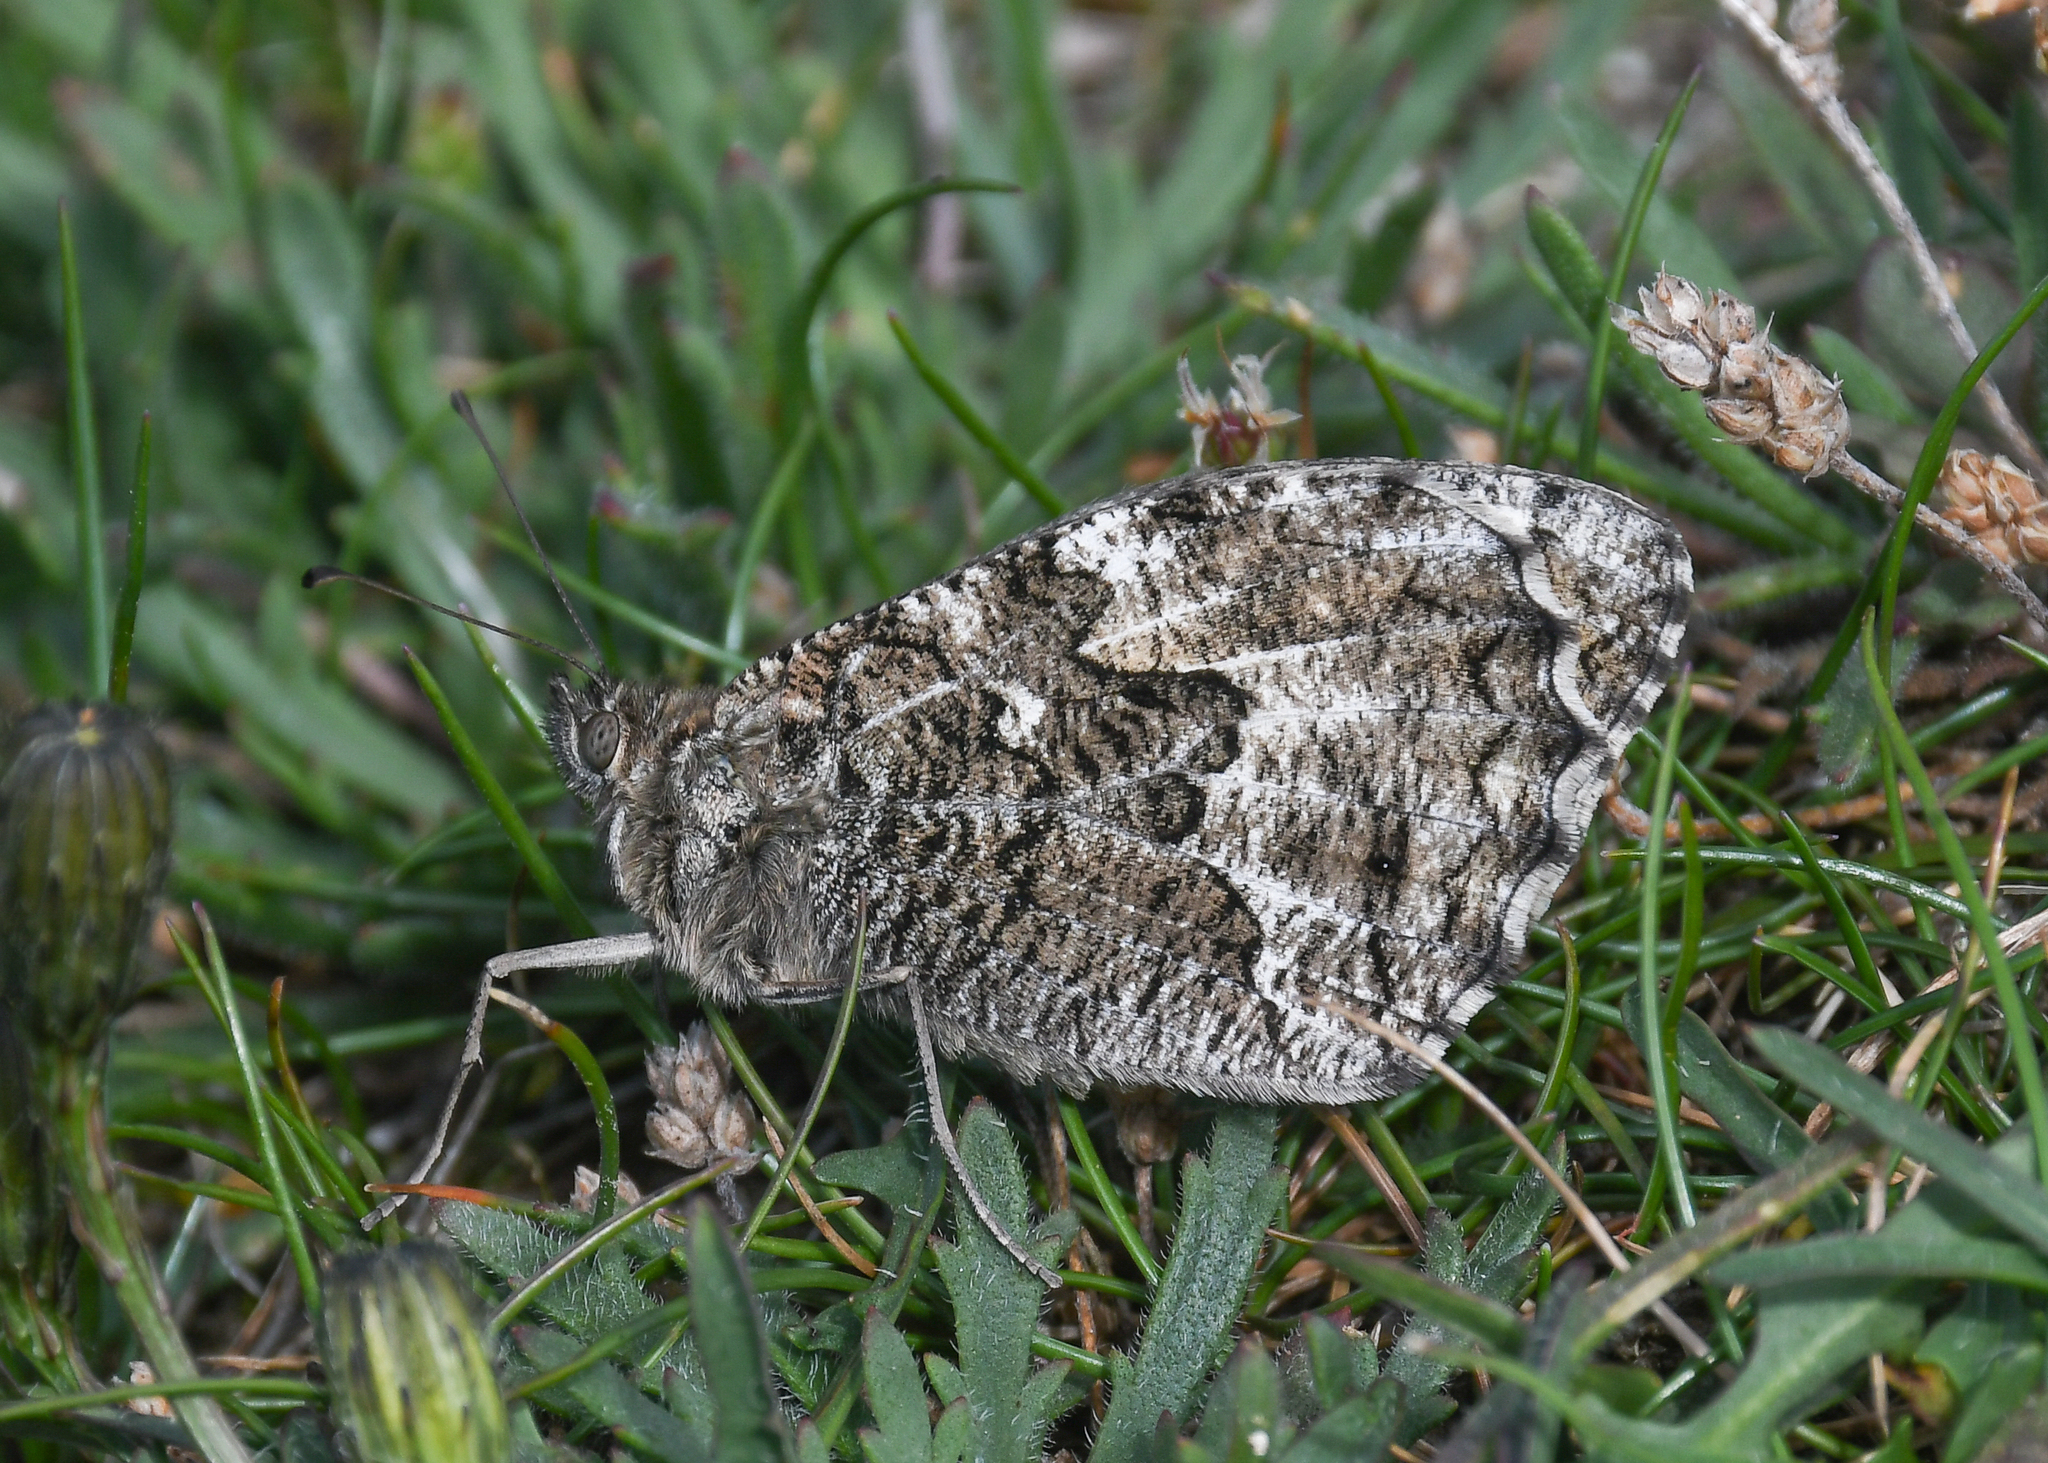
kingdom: Animalia
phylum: Arthropoda
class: Insecta
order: Lepidoptera
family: Nymphalidae
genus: Hipparchia
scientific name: Hipparchia semele
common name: Grayling
